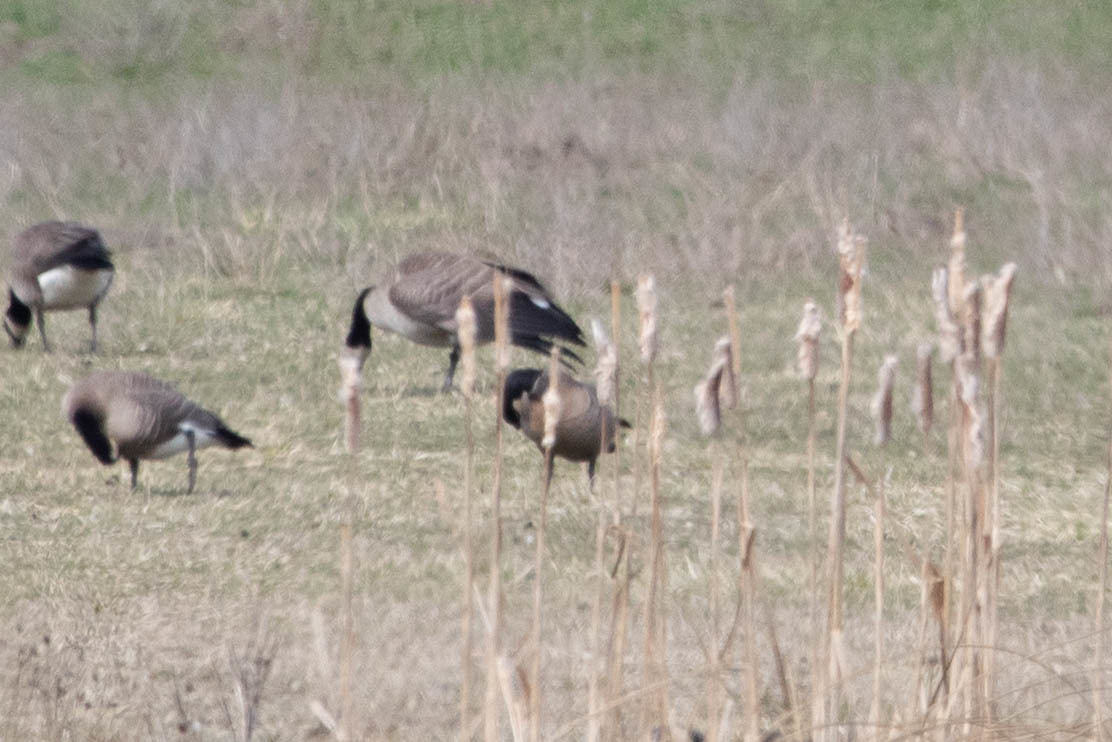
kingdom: Animalia
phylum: Chordata
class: Aves
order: Anseriformes
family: Anatidae
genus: Branta
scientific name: Branta hutchinsii
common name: Cackling goose
